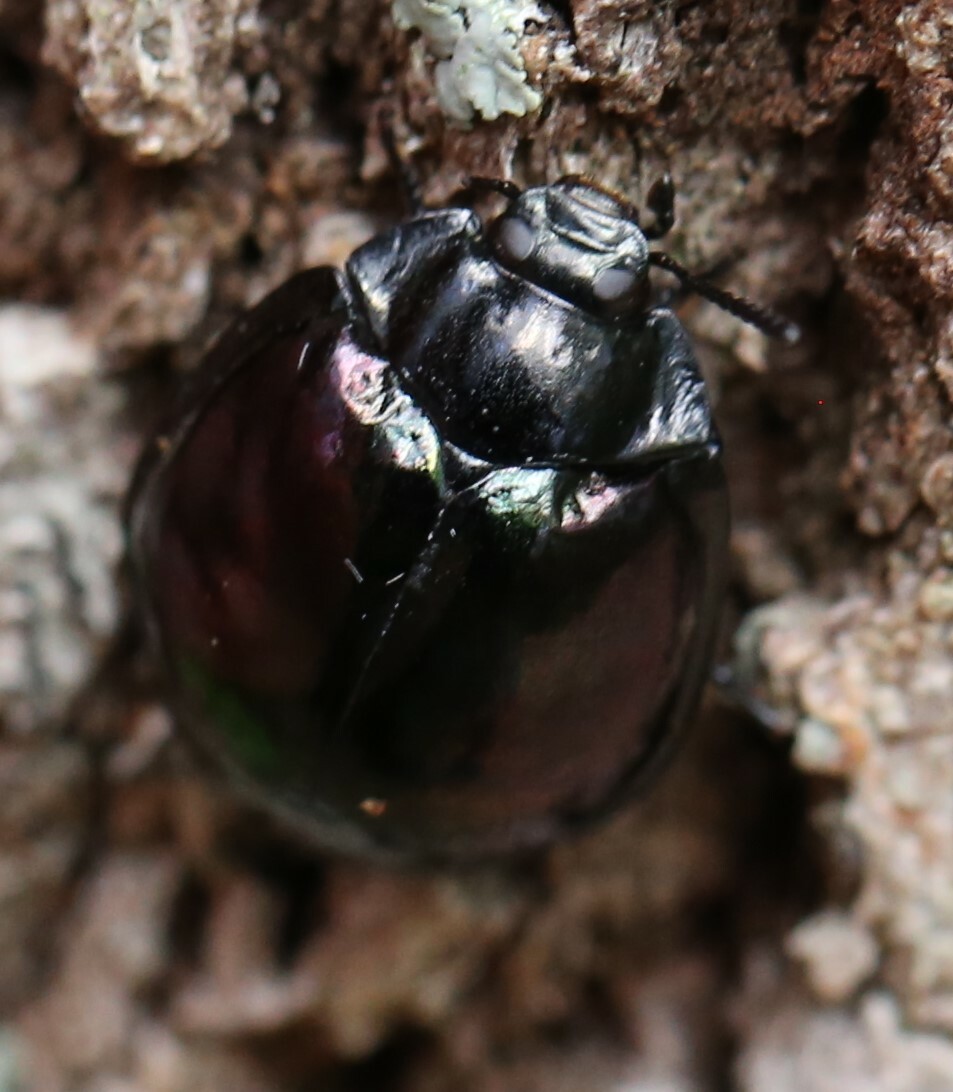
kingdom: Animalia
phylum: Arthropoda
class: Insecta
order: Coleoptera
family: Tenebrionidae
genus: Hemicyclus
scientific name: Hemicyclus
